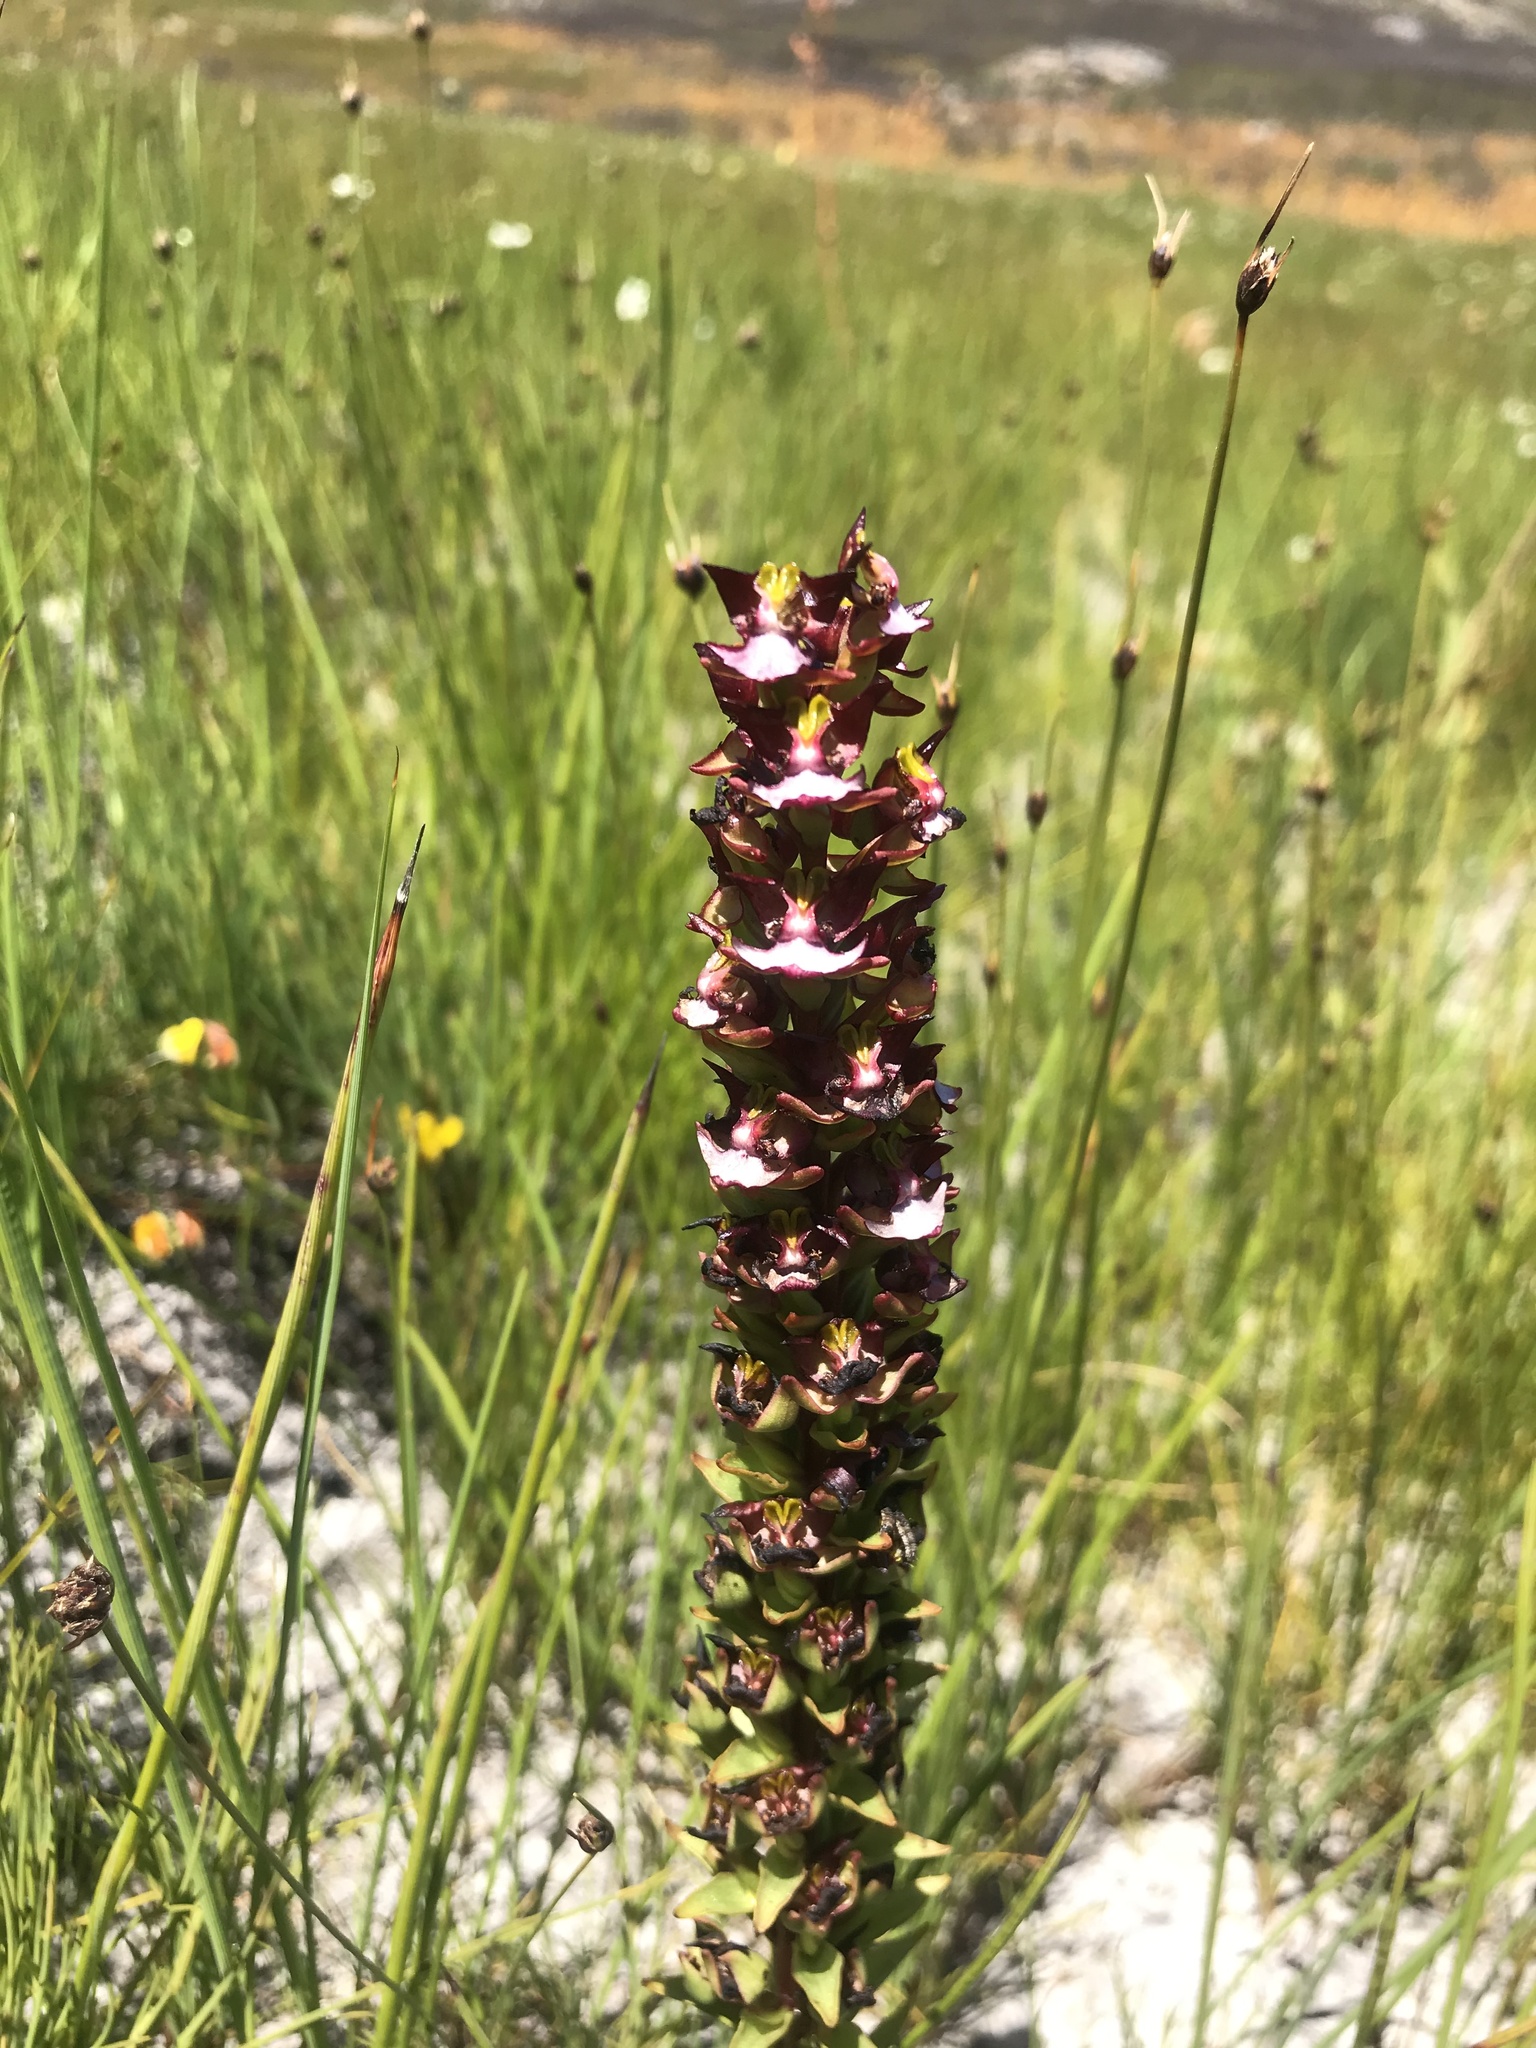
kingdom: Plantae
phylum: Tracheophyta
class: Liliopsida
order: Asparagales
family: Orchidaceae
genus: Evotella
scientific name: Evotella rubiginosa
